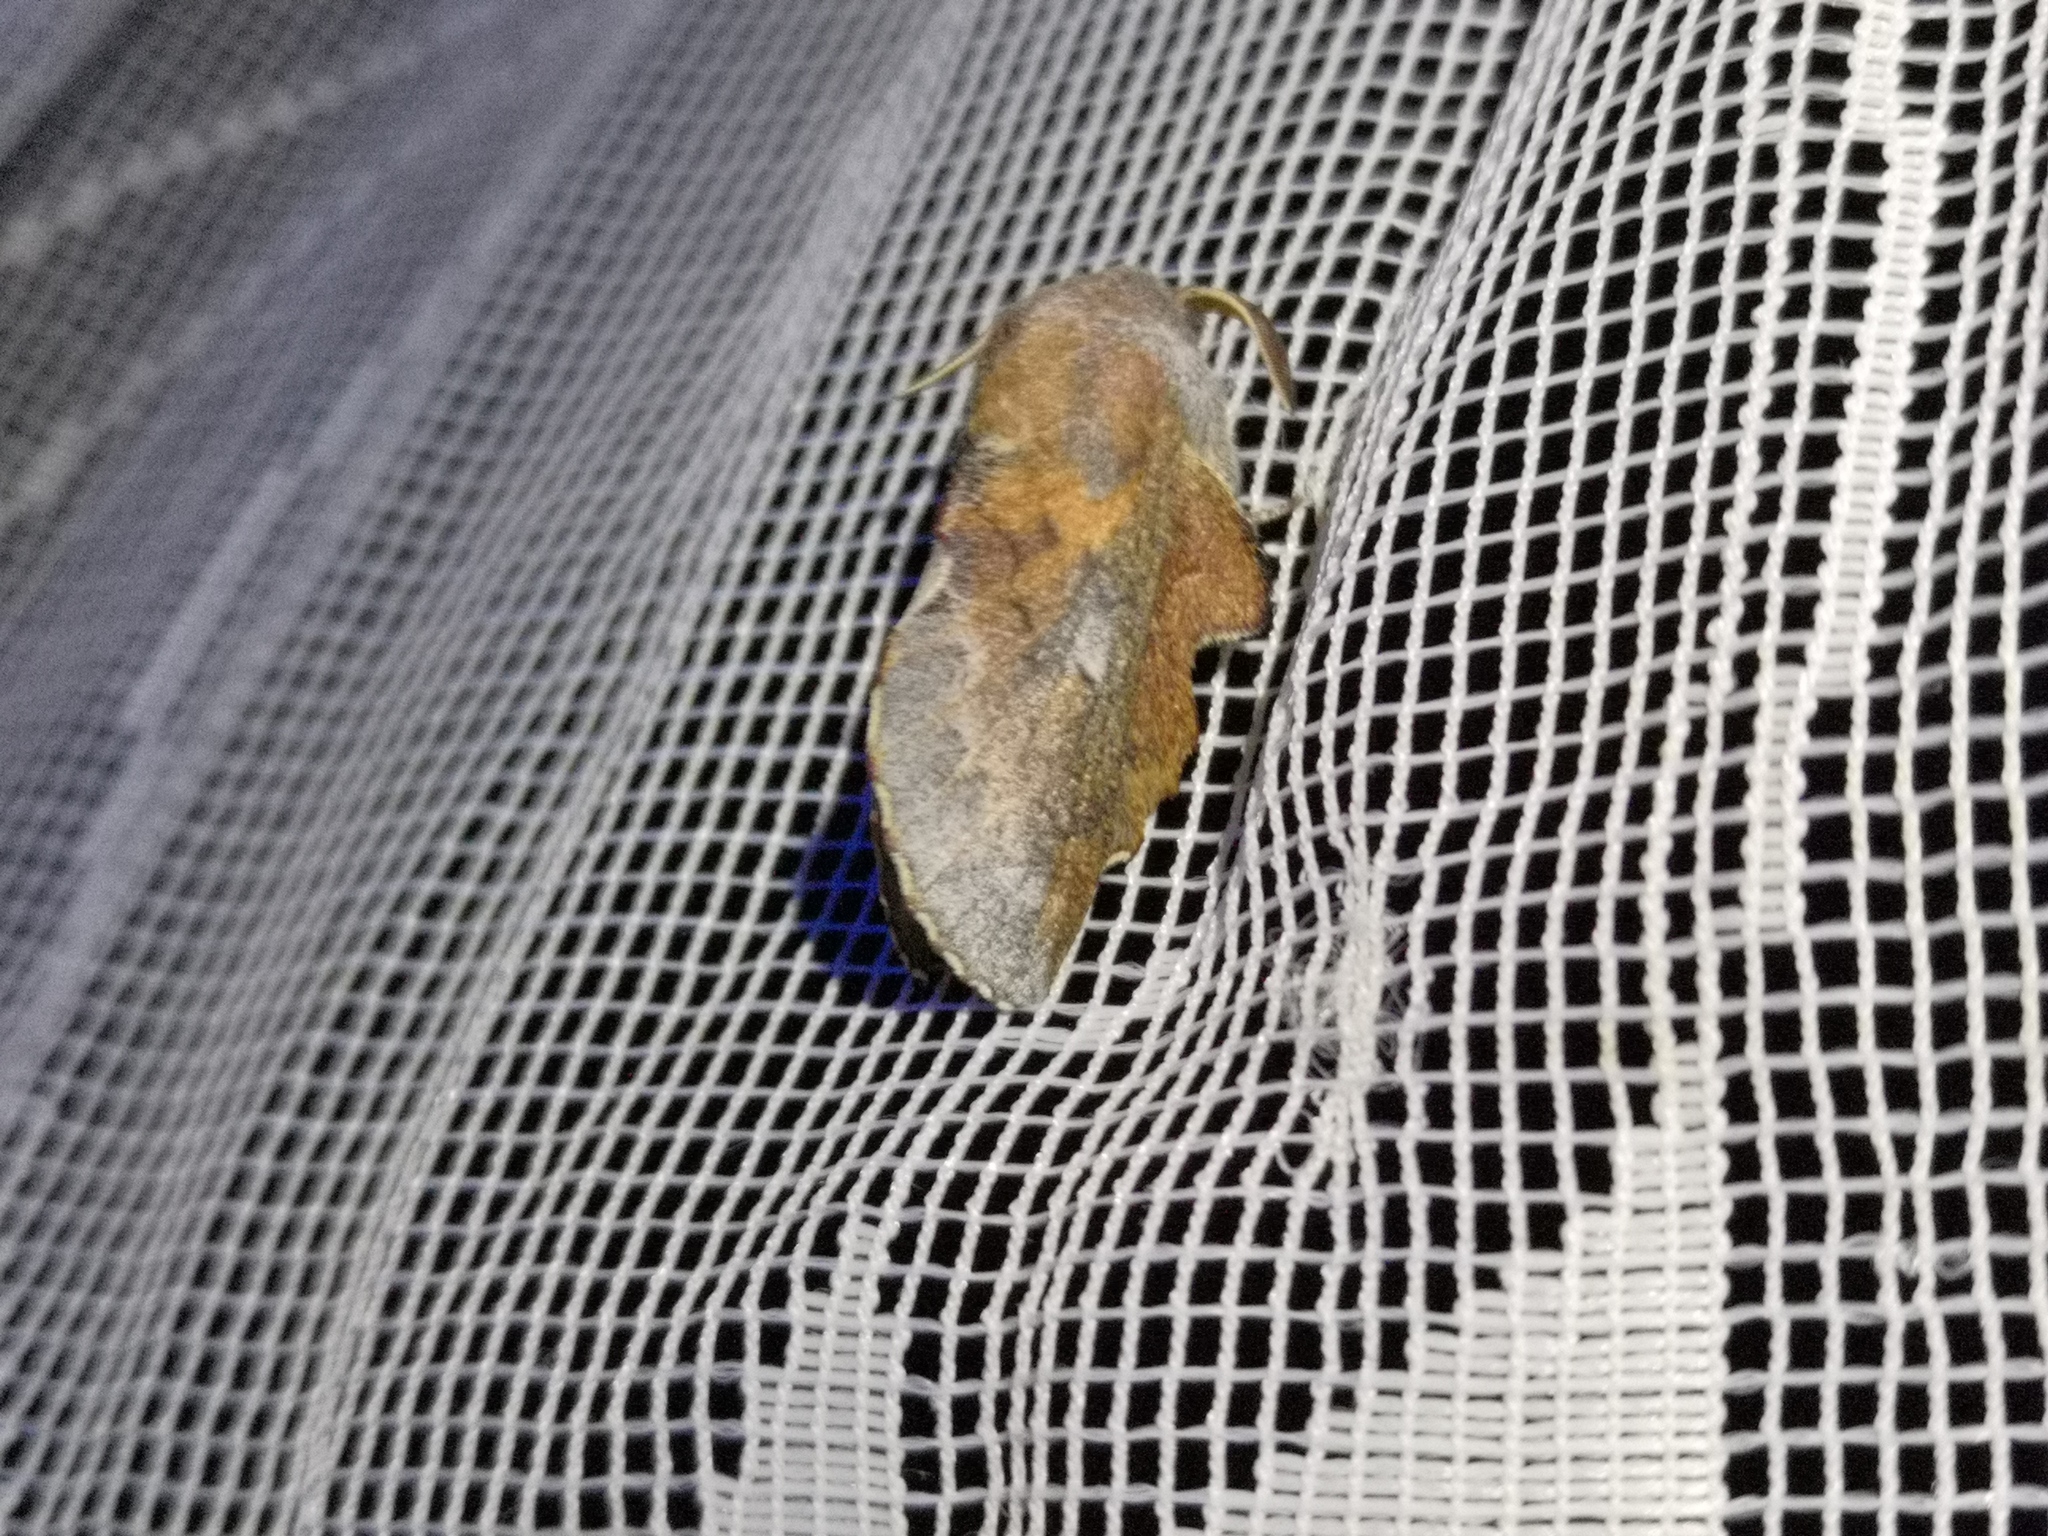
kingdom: Animalia
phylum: Arthropoda
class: Insecta
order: Lepidoptera
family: Lasiocampidae
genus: Phyllodesma
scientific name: Phyllodesma ilicifolia
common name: Small lappet
